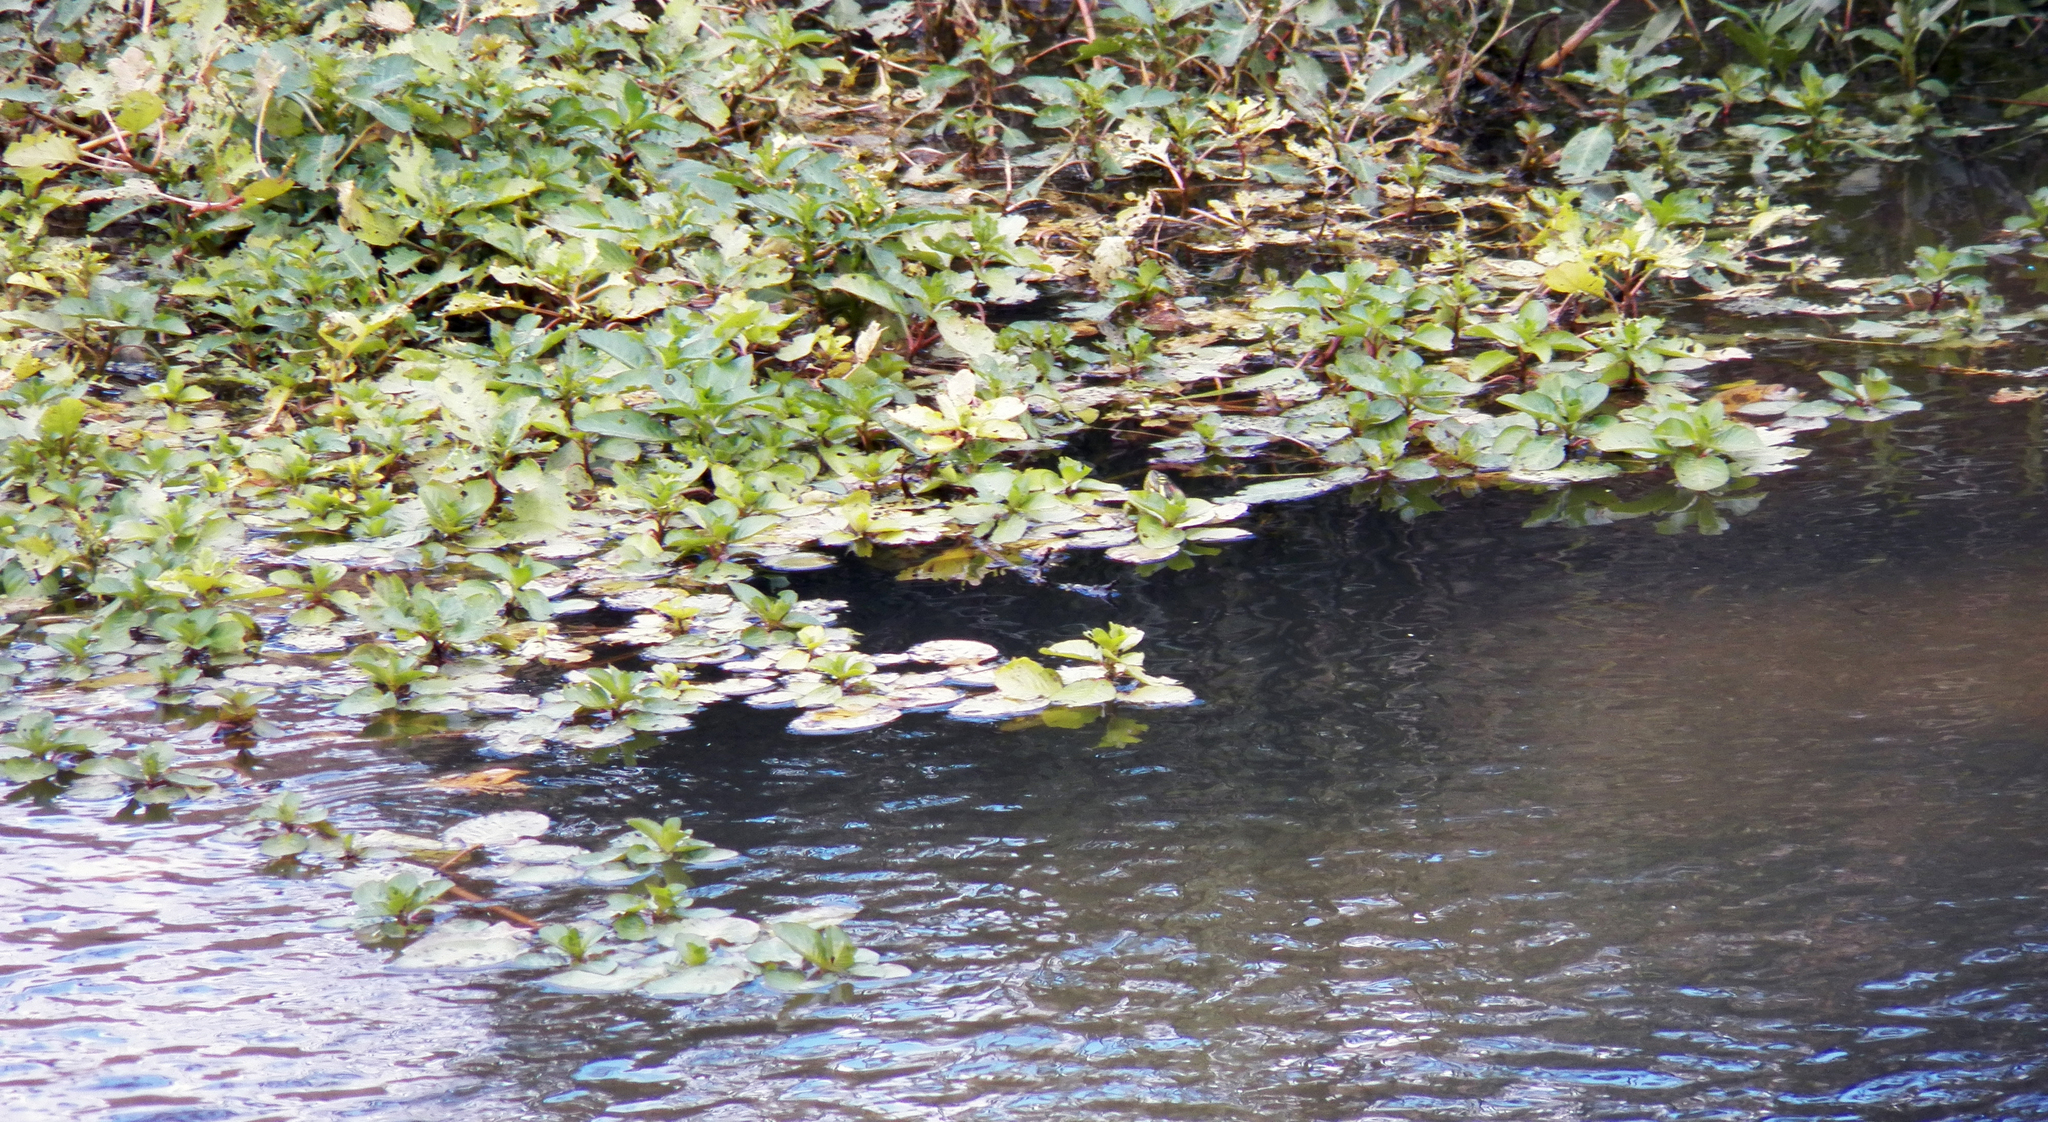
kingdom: Plantae
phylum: Tracheophyta
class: Magnoliopsida
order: Myrtales
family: Onagraceae
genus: Ludwigia
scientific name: Ludwigia peploides
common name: Floating primrose-willow
